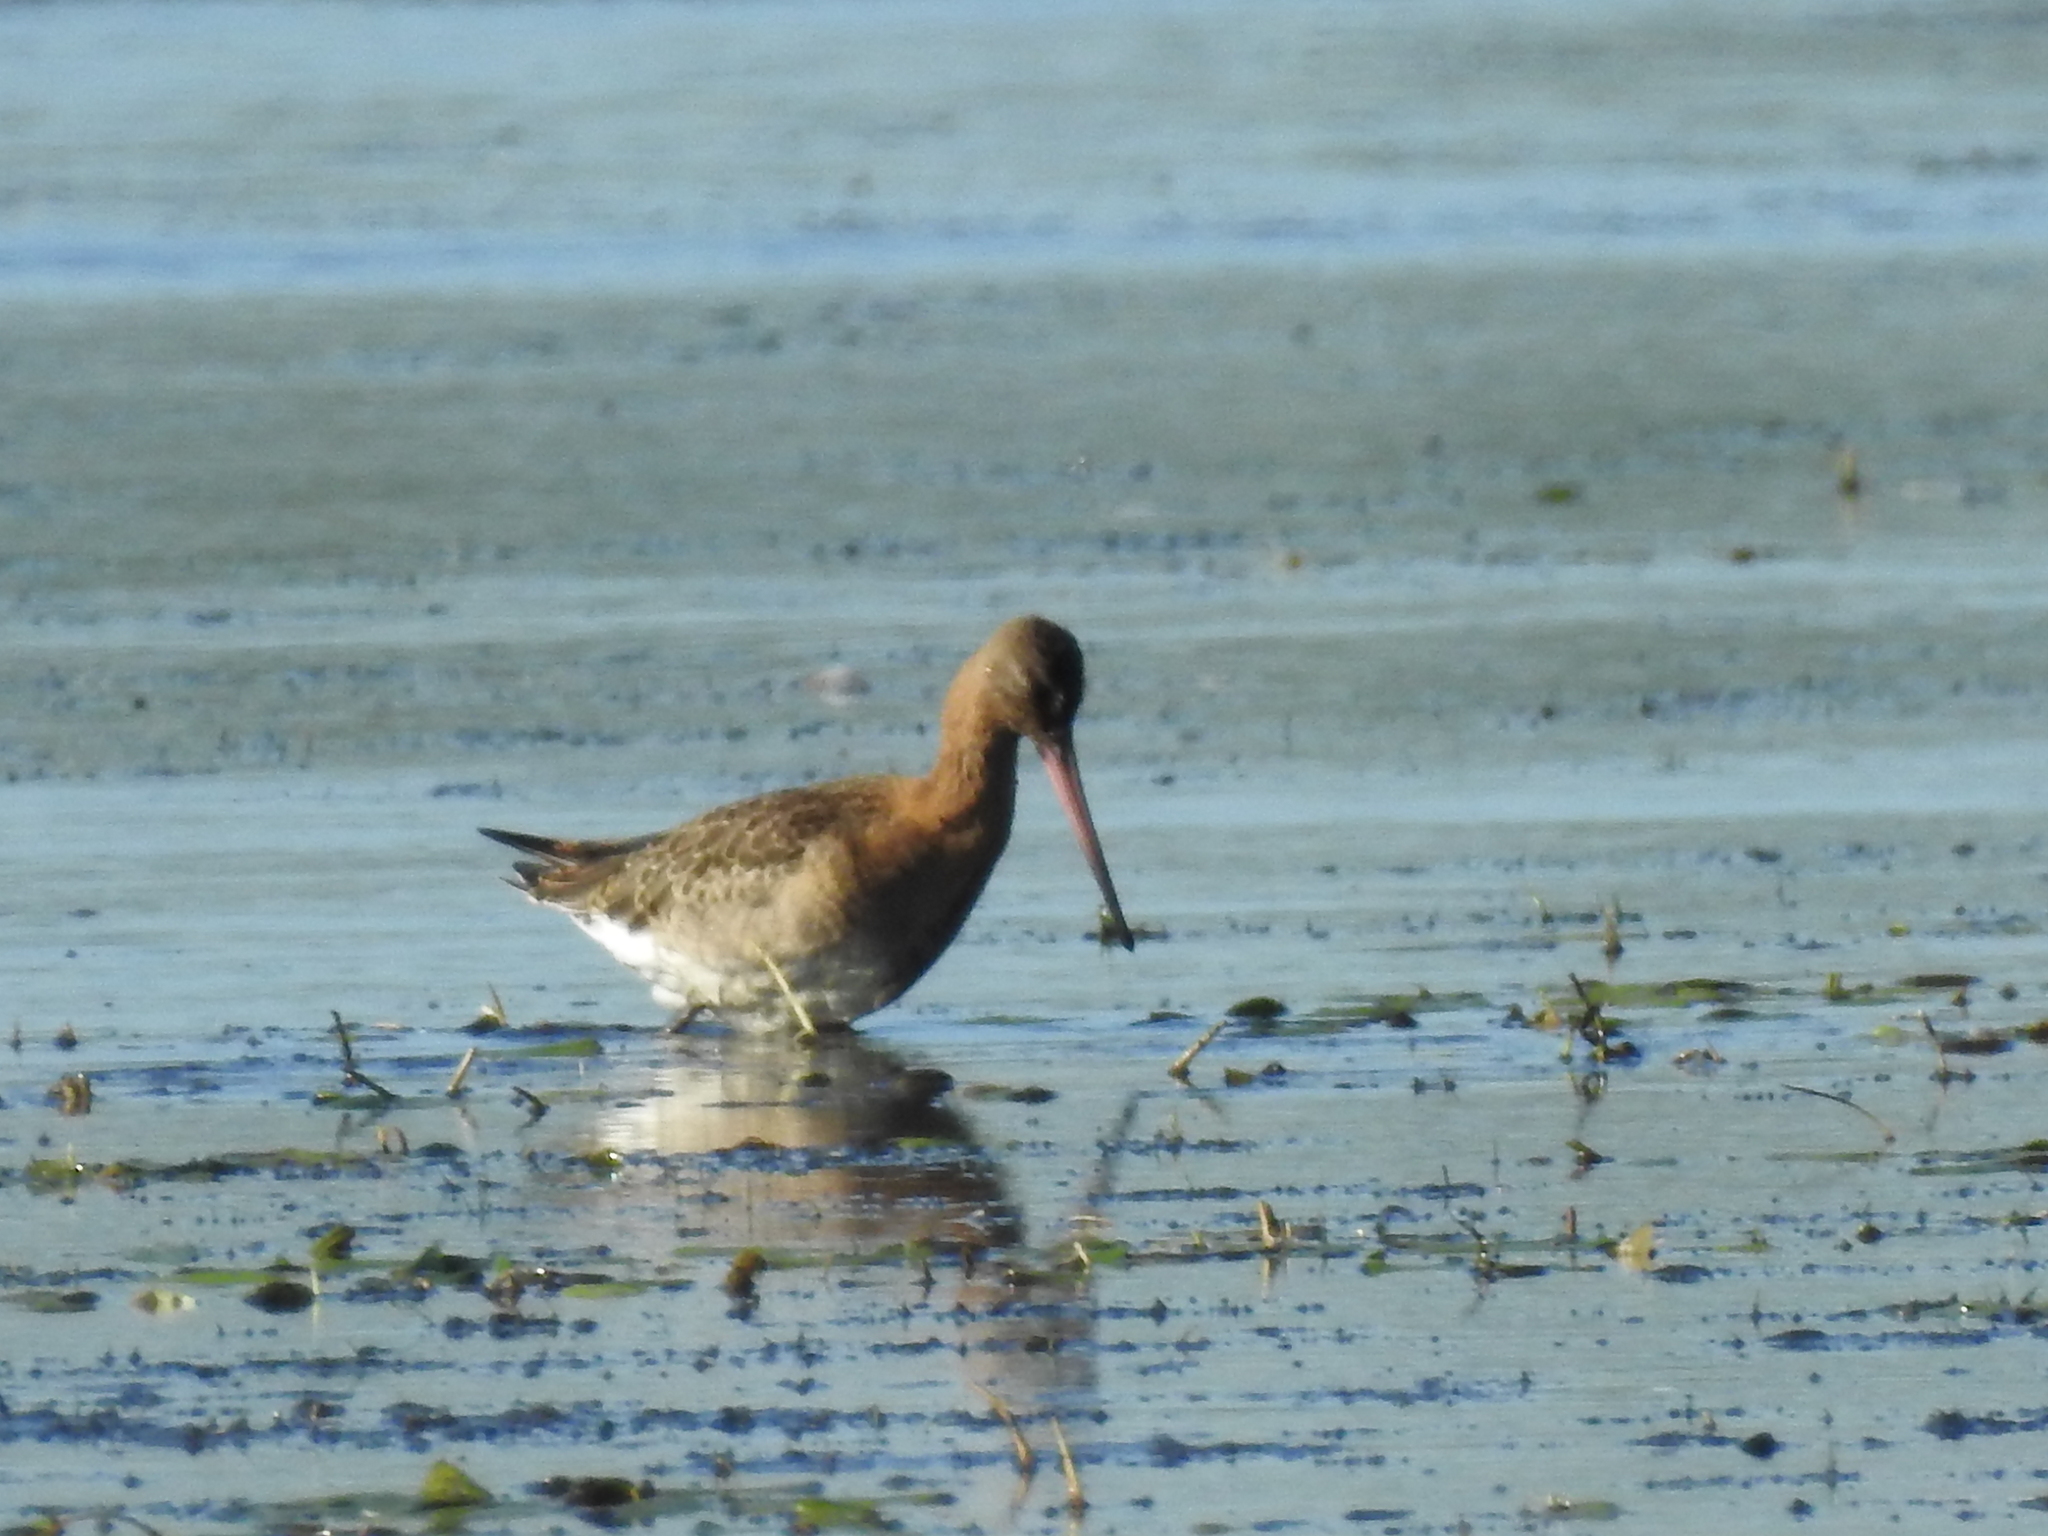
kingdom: Animalia
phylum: Chordata
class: Aves
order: Charadriiformes
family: Scolopacidae
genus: Limosa
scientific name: Limosa limosa
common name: Black-tailed godwit
